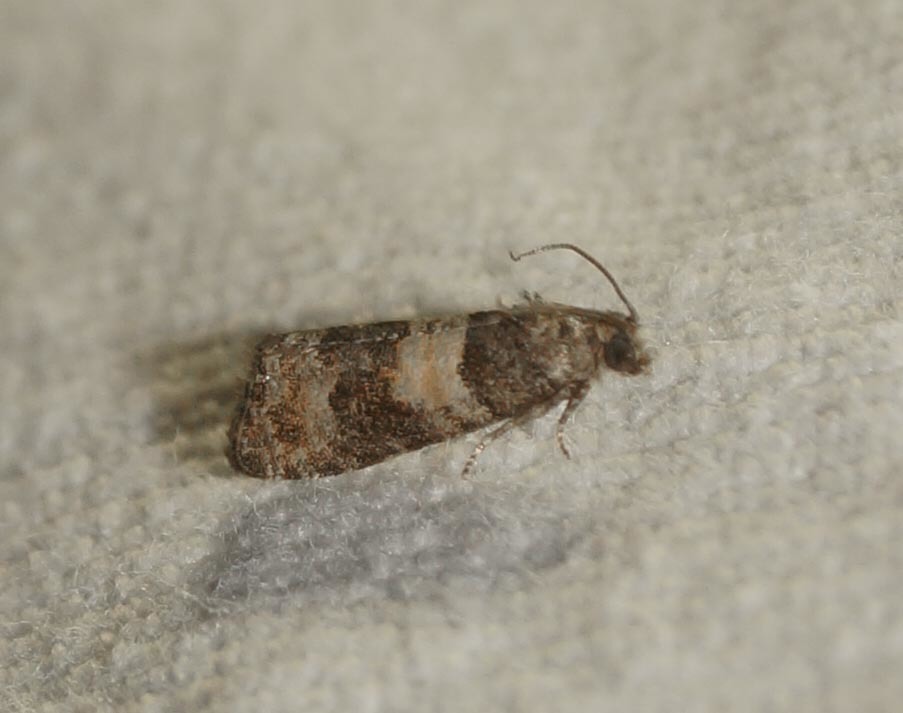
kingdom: Animalia
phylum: Arthropoda
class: Insecta
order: Lepidoptera
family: Tortricidae
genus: Piniphila
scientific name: Piniphila bifasciana
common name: Pine marble
